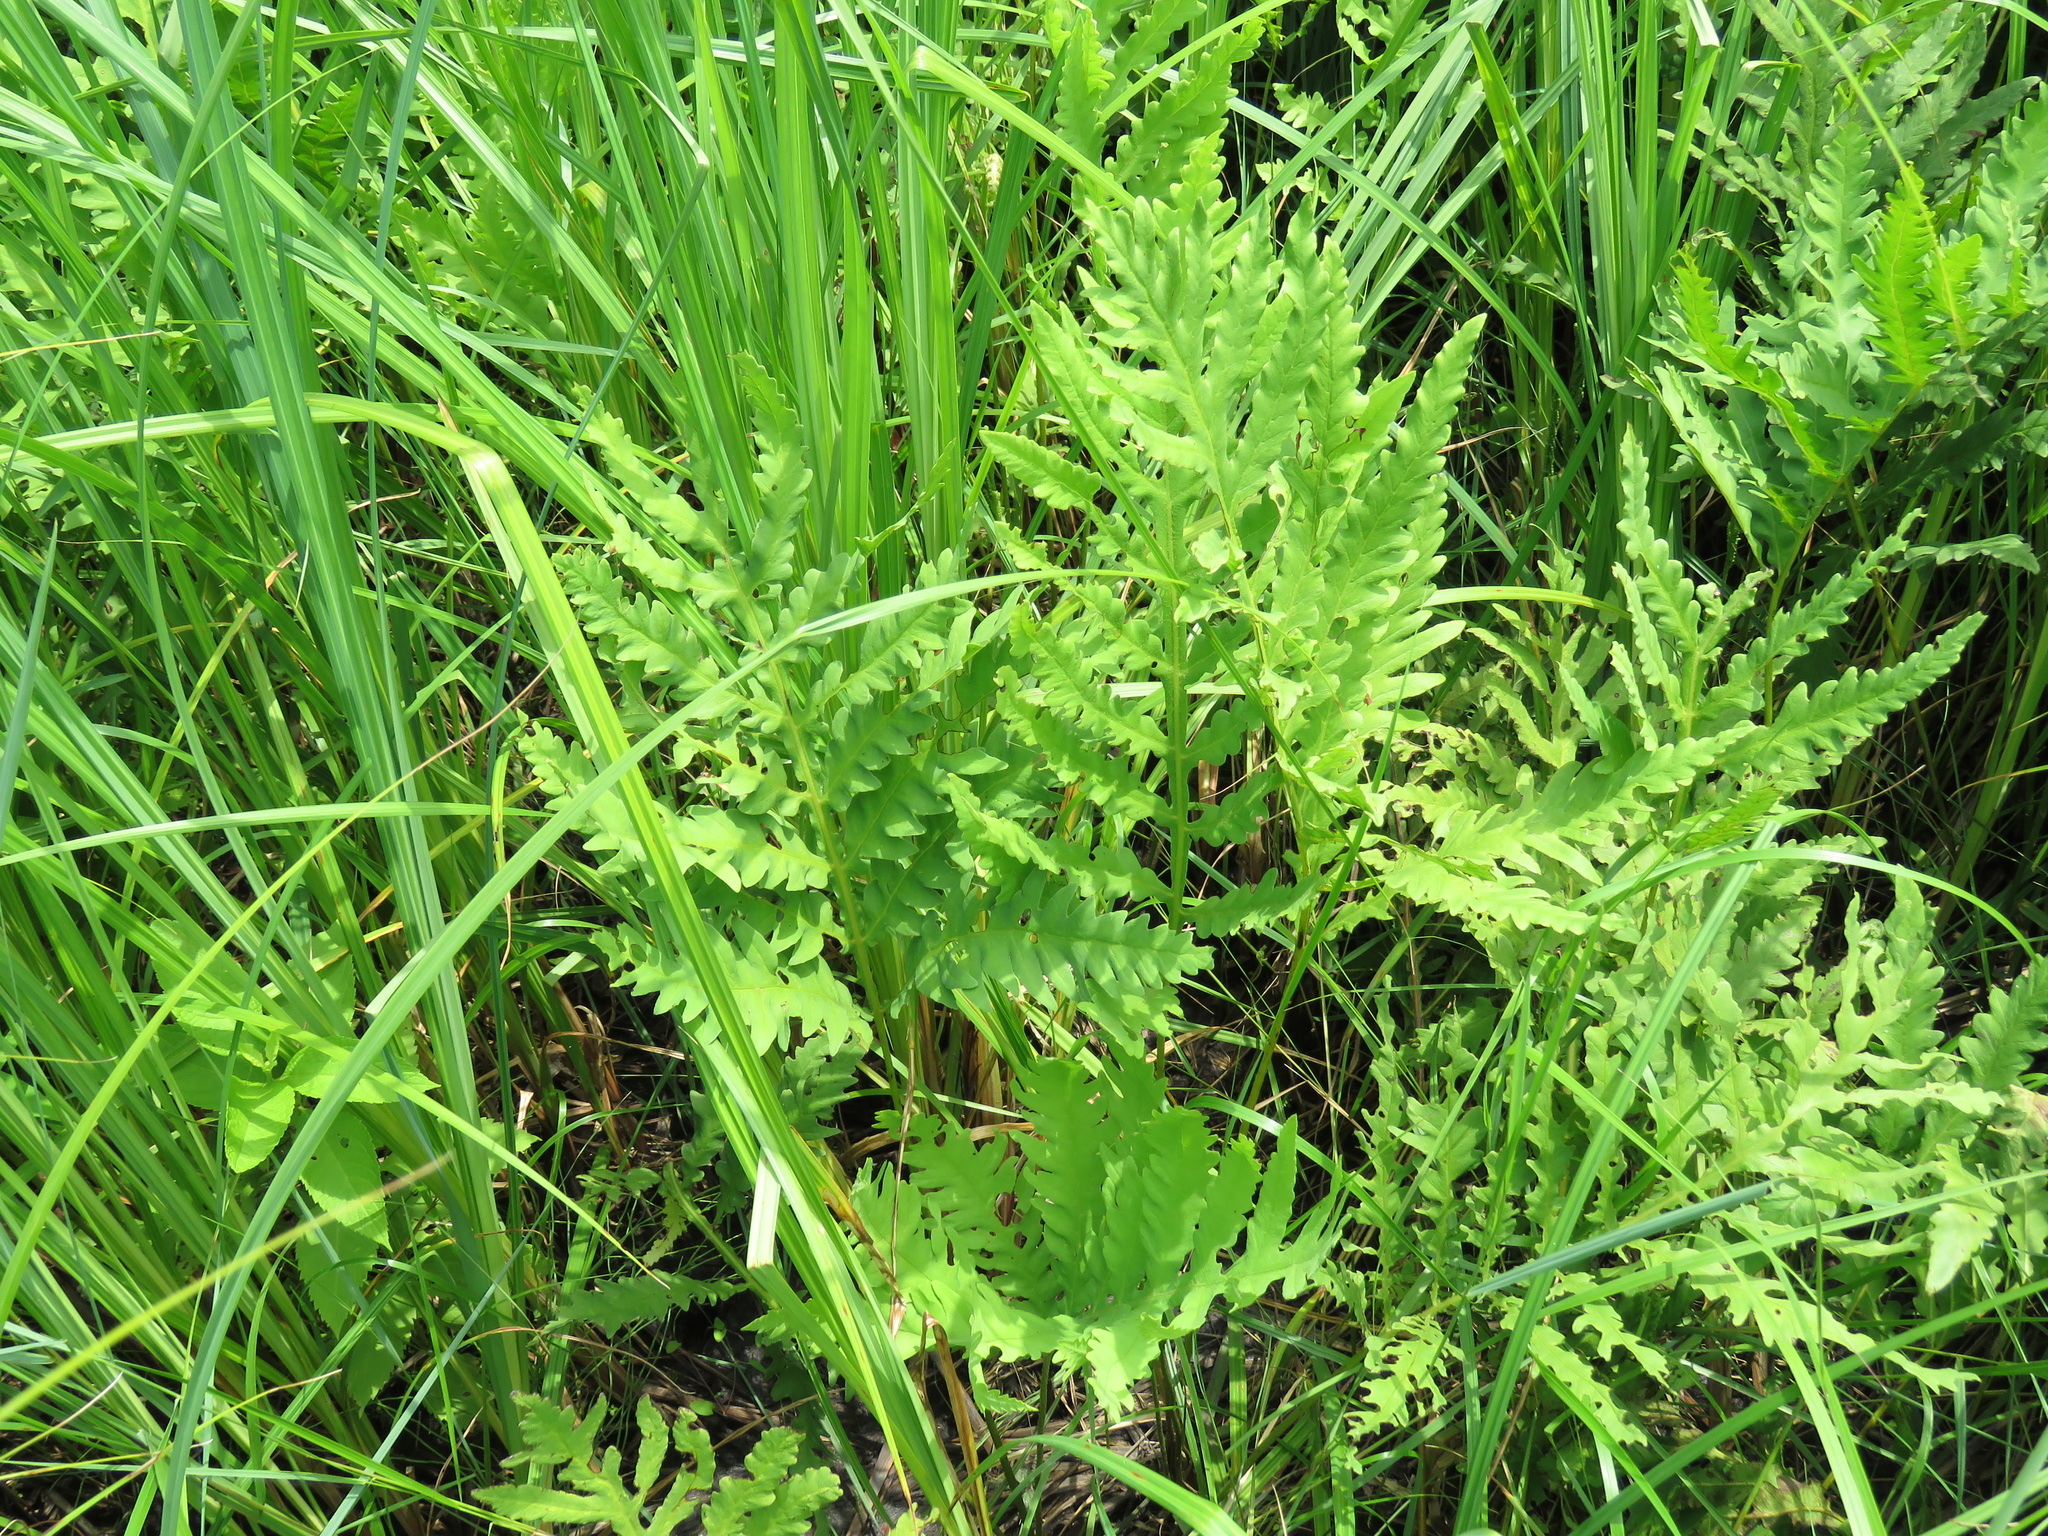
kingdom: Plantae
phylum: Tracheophyta
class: Polypodiopsida
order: Polypodiales
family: Onocleaceae
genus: Onoclea
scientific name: Onoclea sensibilis
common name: Sensitive fern
